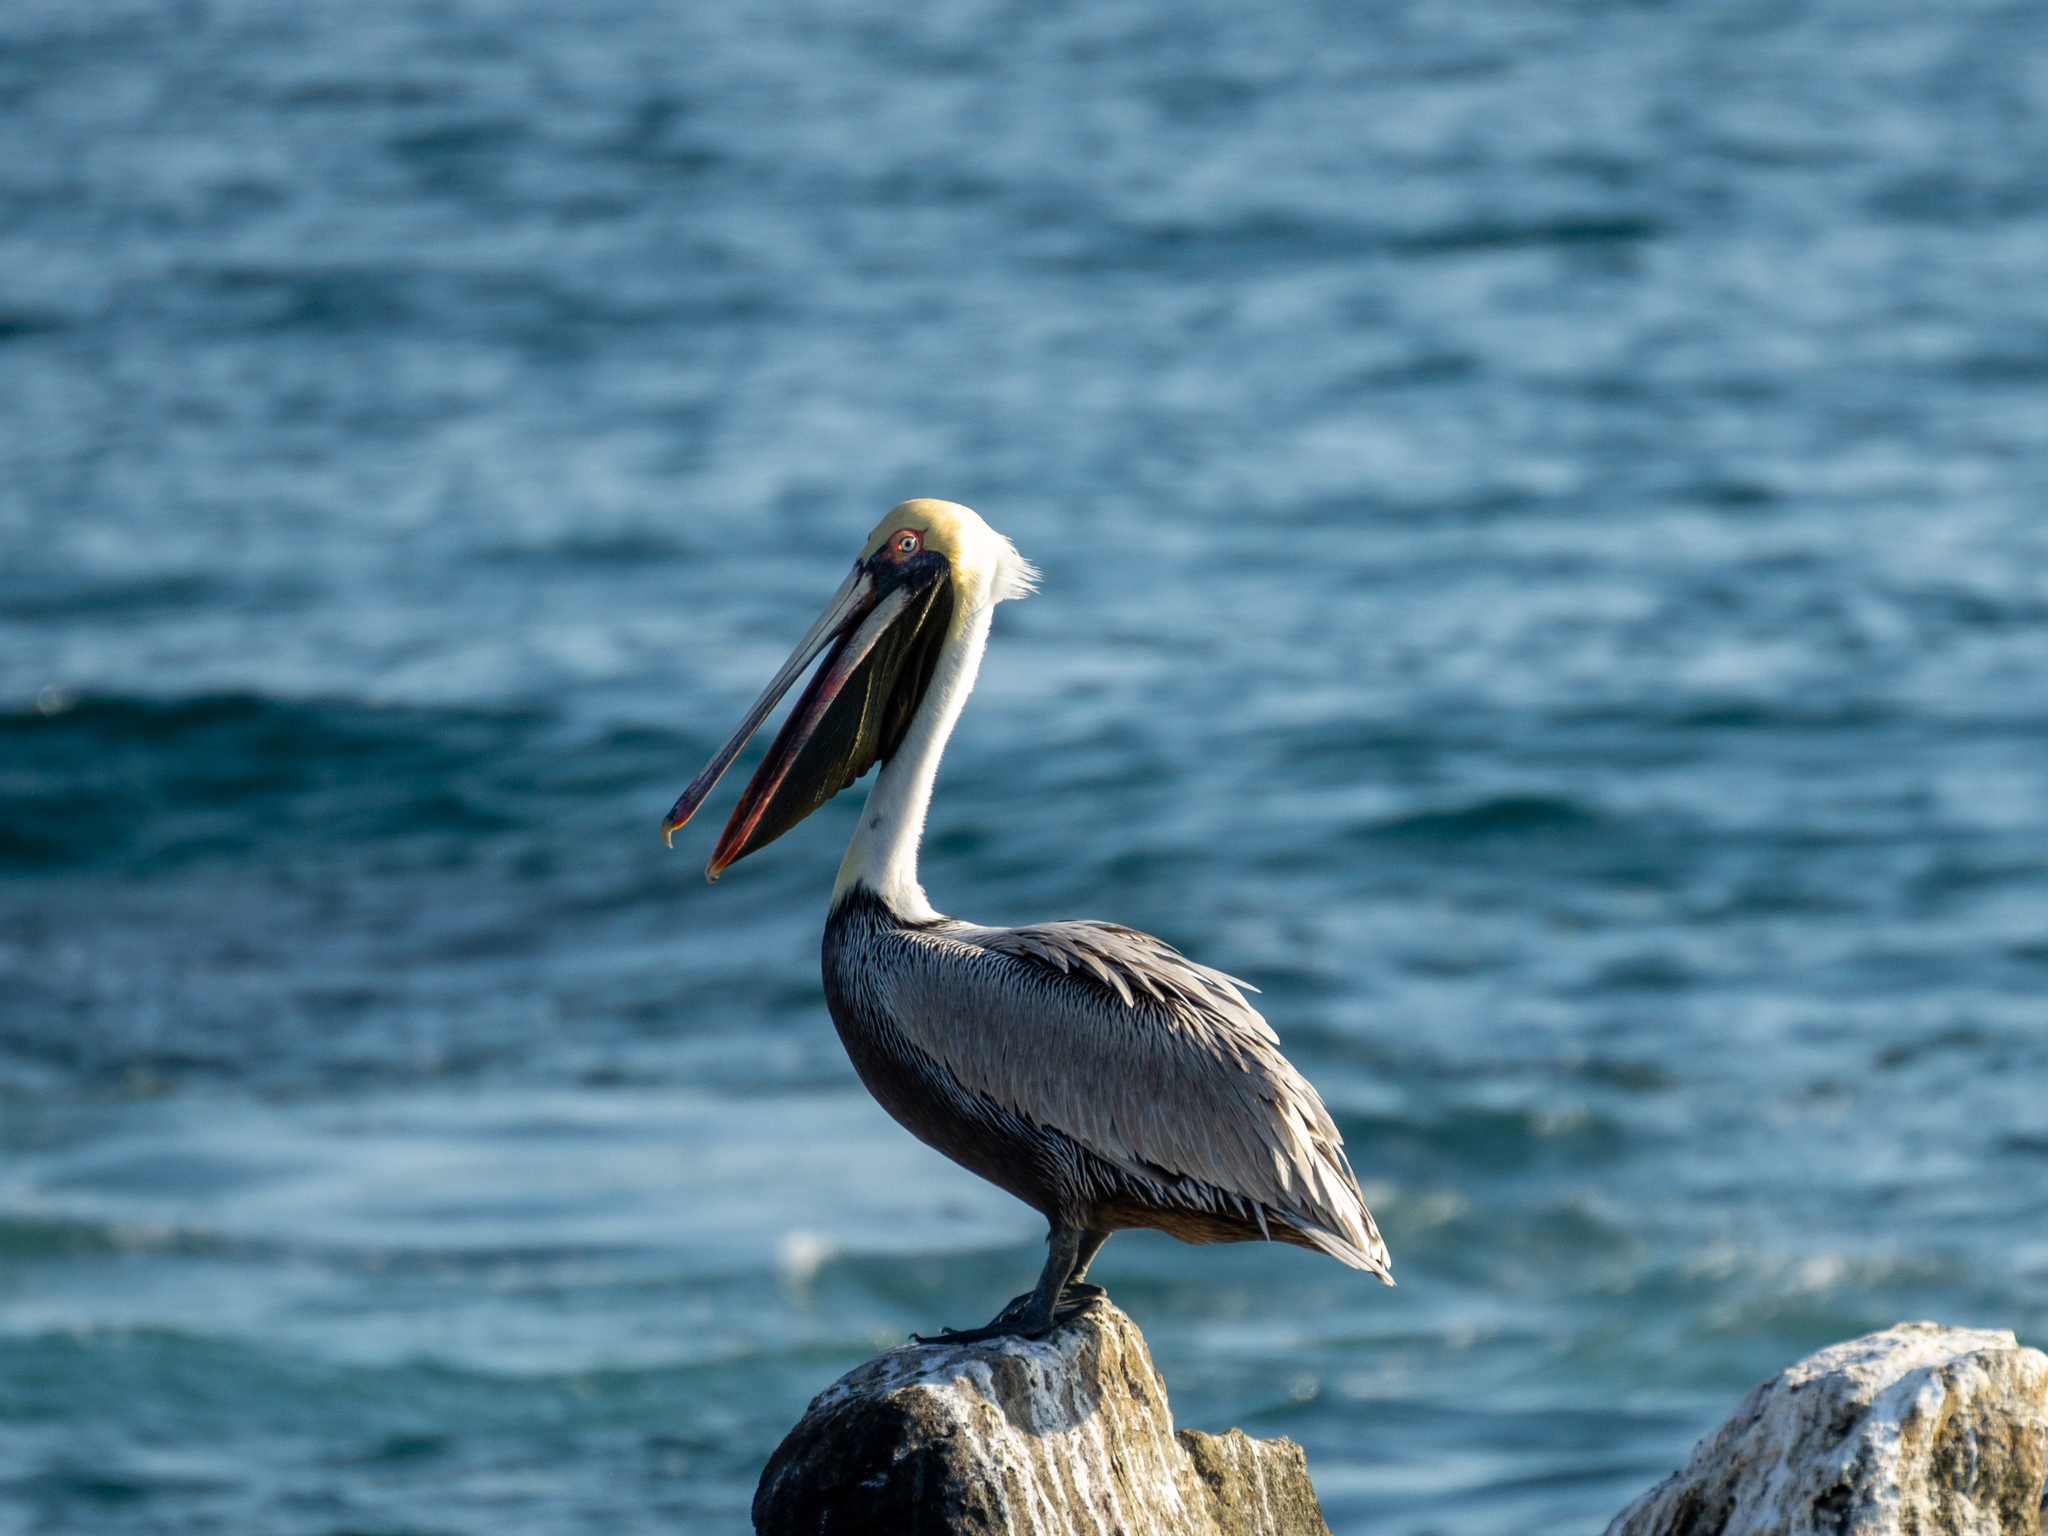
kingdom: Animalia
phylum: Chordata
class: Aves
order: Pelecaniformes
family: Pelecanidae
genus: Pelecanus
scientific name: Pelecanus occidentalis
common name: Brown pelican
